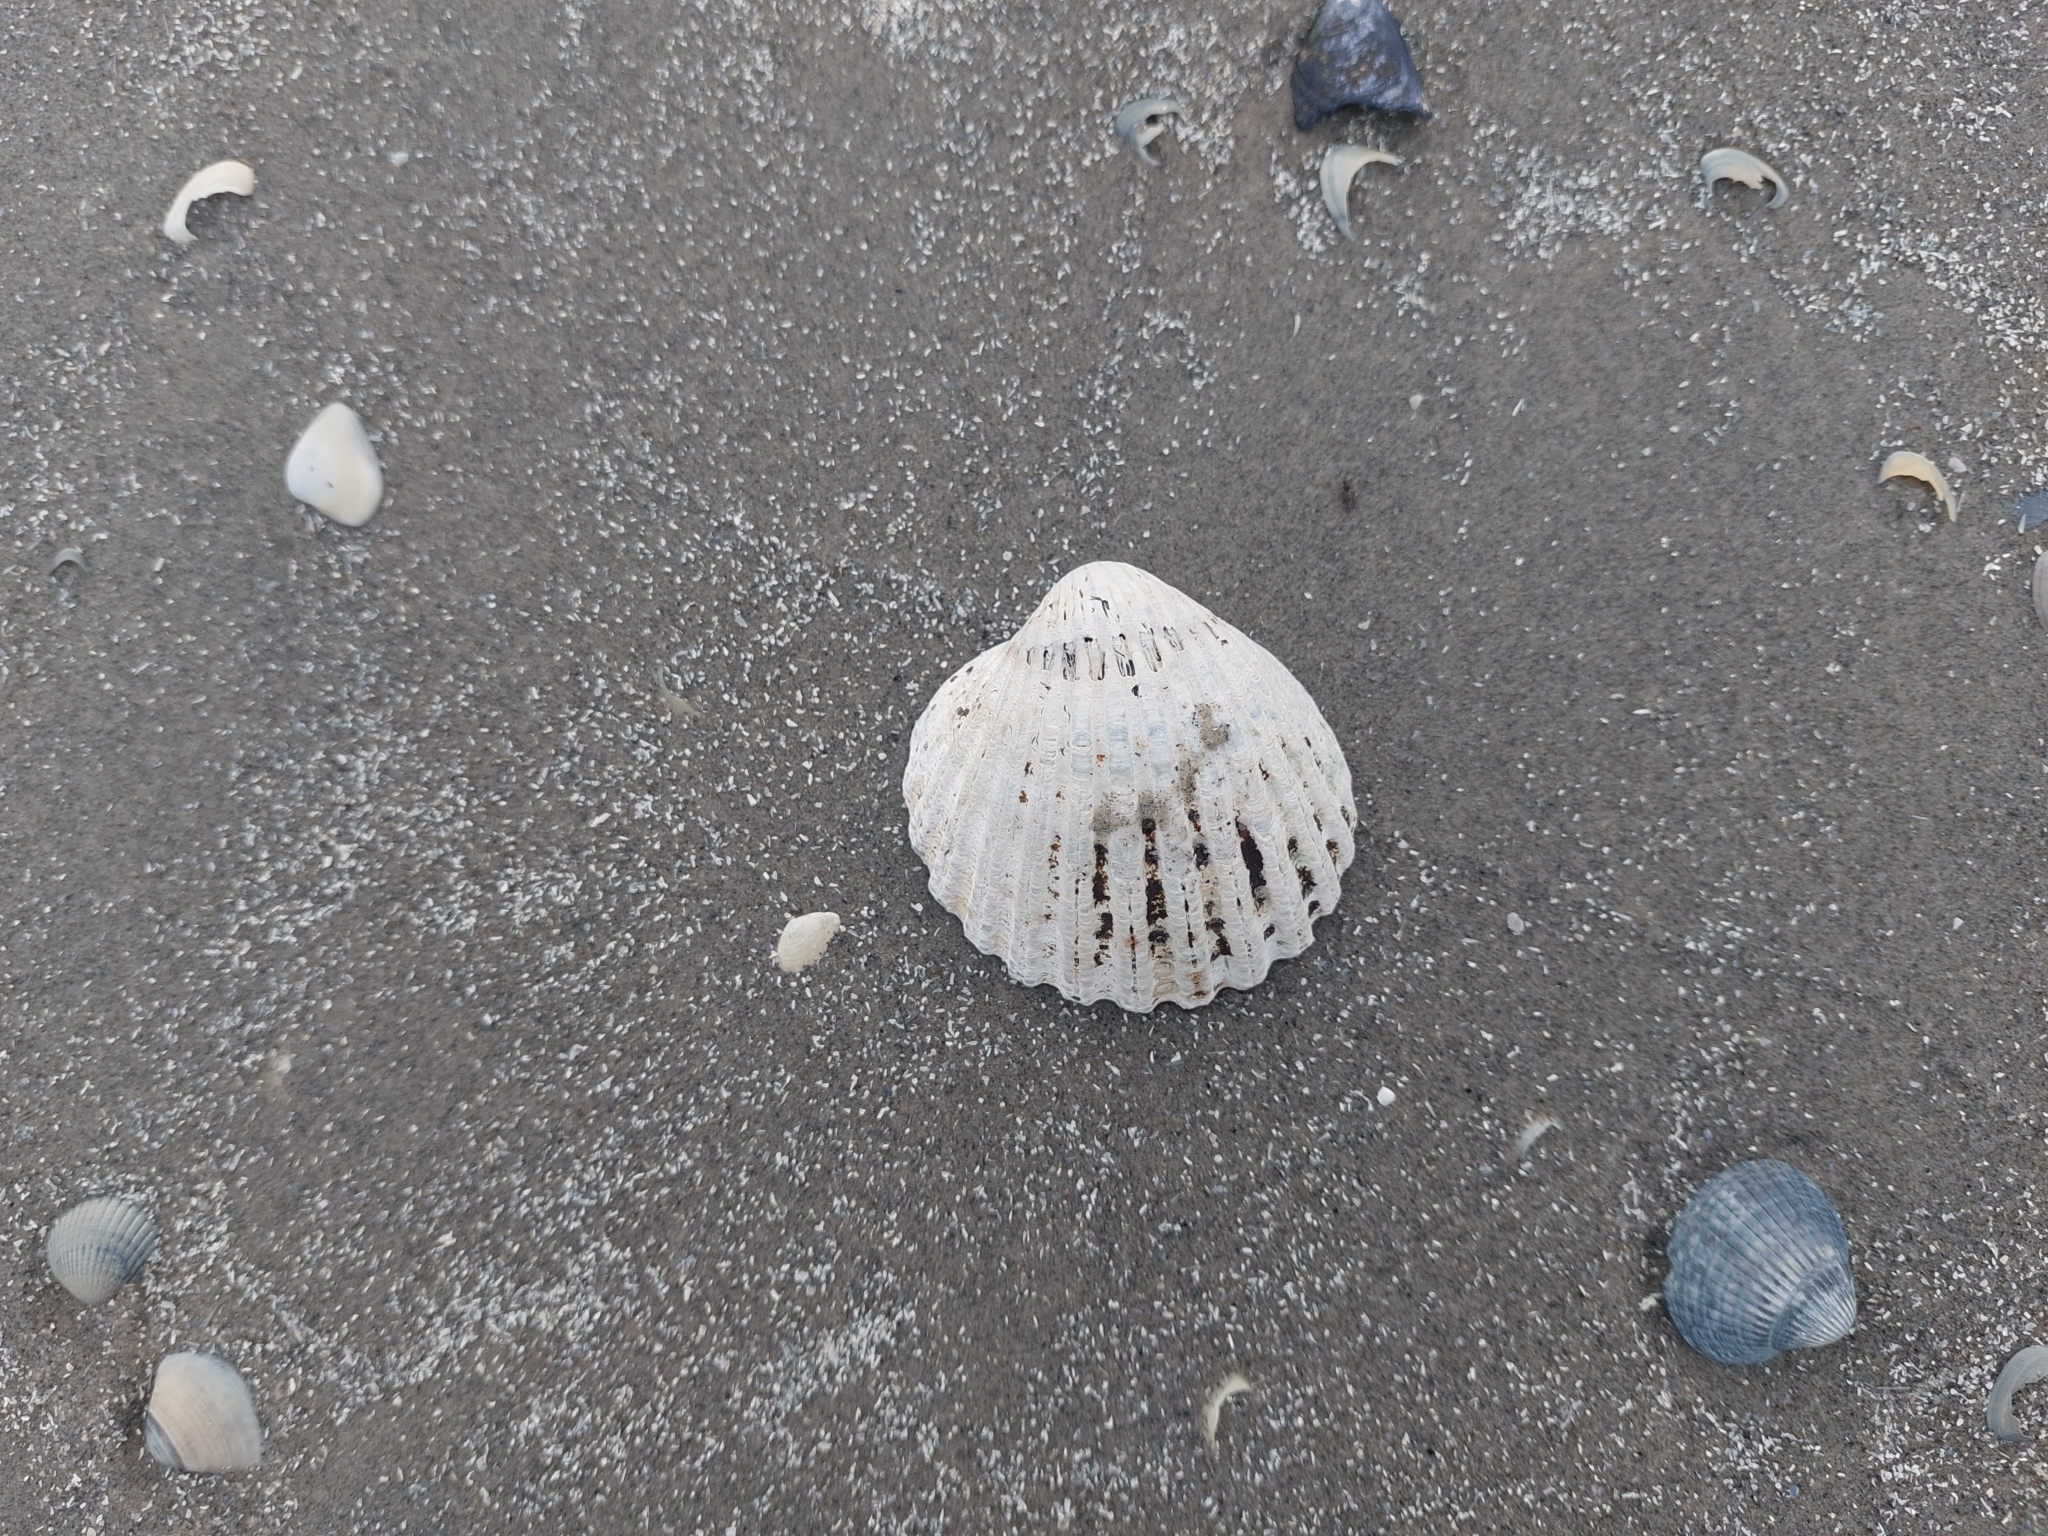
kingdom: Animalia
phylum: Mollusca
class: Bivalvia
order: Cardiida
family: Cardiidae
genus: Acanthocardia
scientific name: Acanthocardia echinata
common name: Prickly cockle
